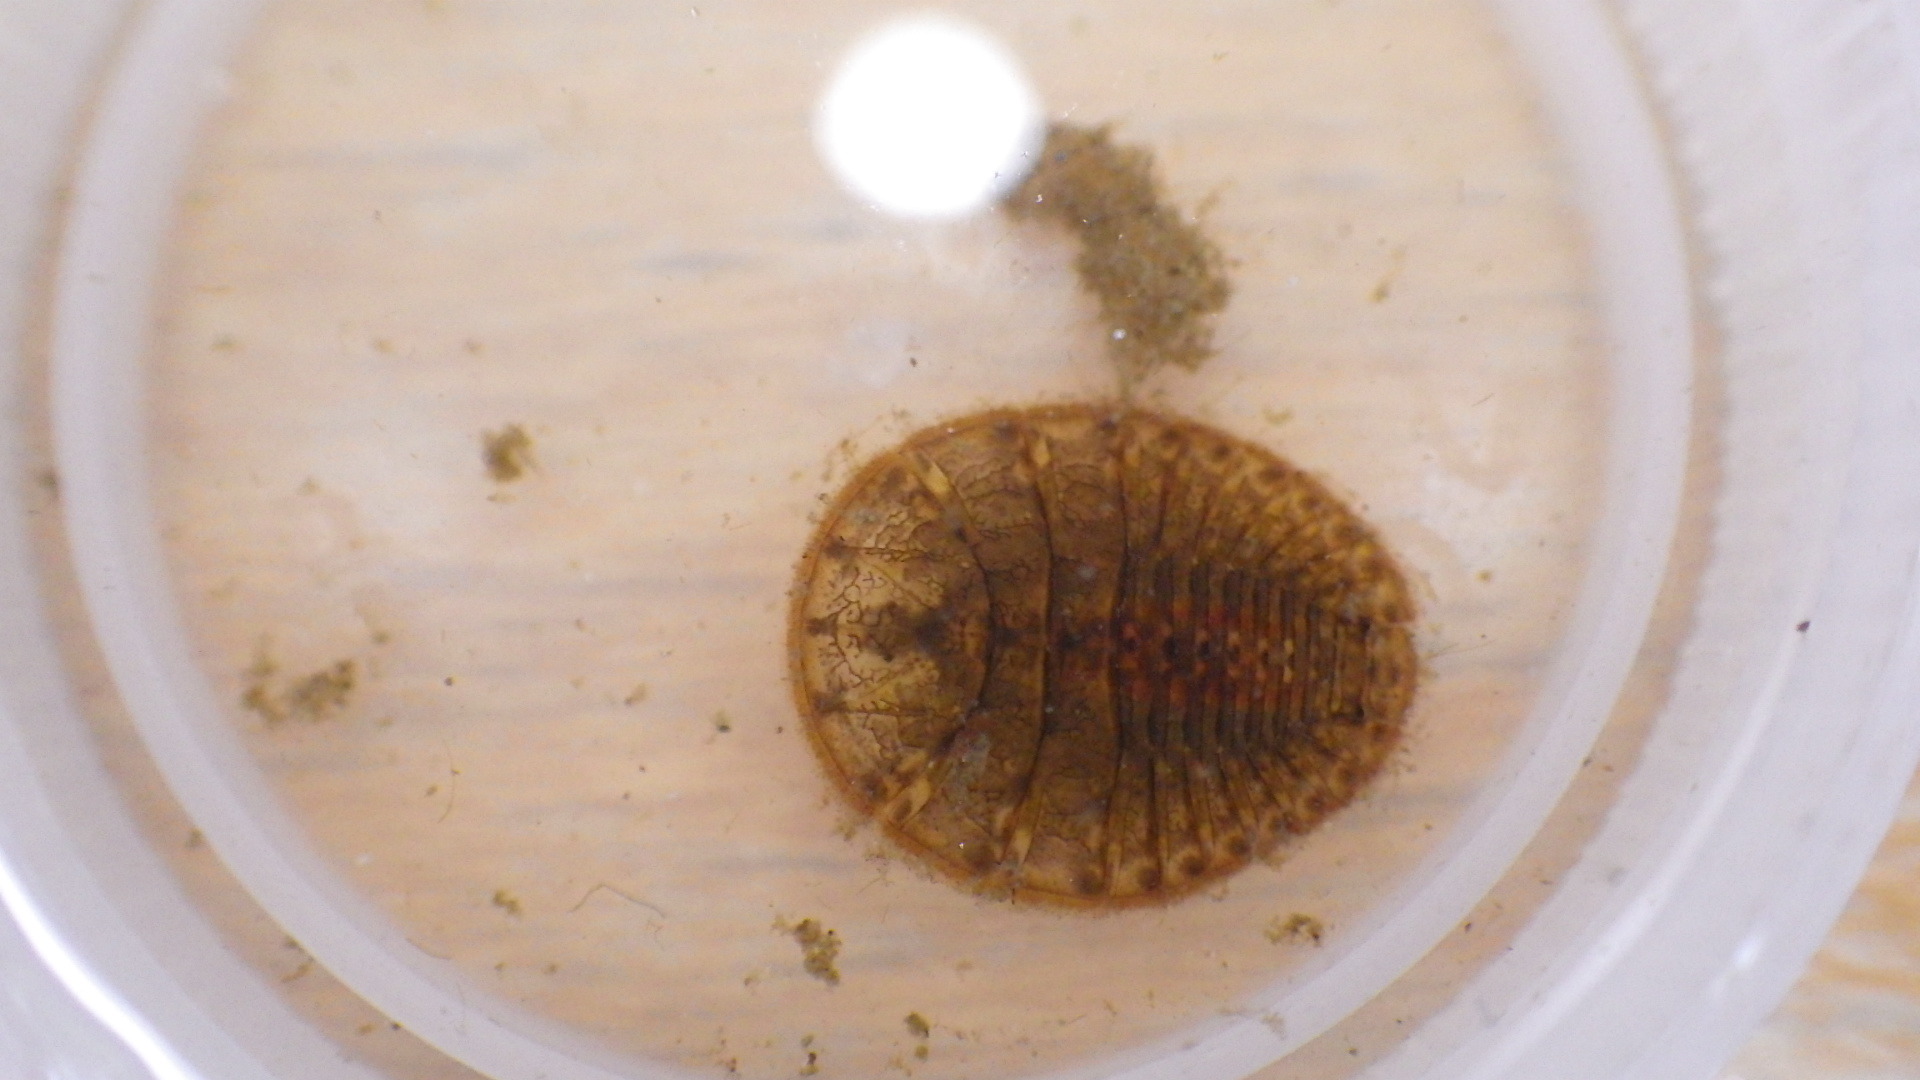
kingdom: Animalia
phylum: Arthropoda
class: Insecta
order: Coleoptera
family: Psephenidae
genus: Psephenus
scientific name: Psephenus herricki
